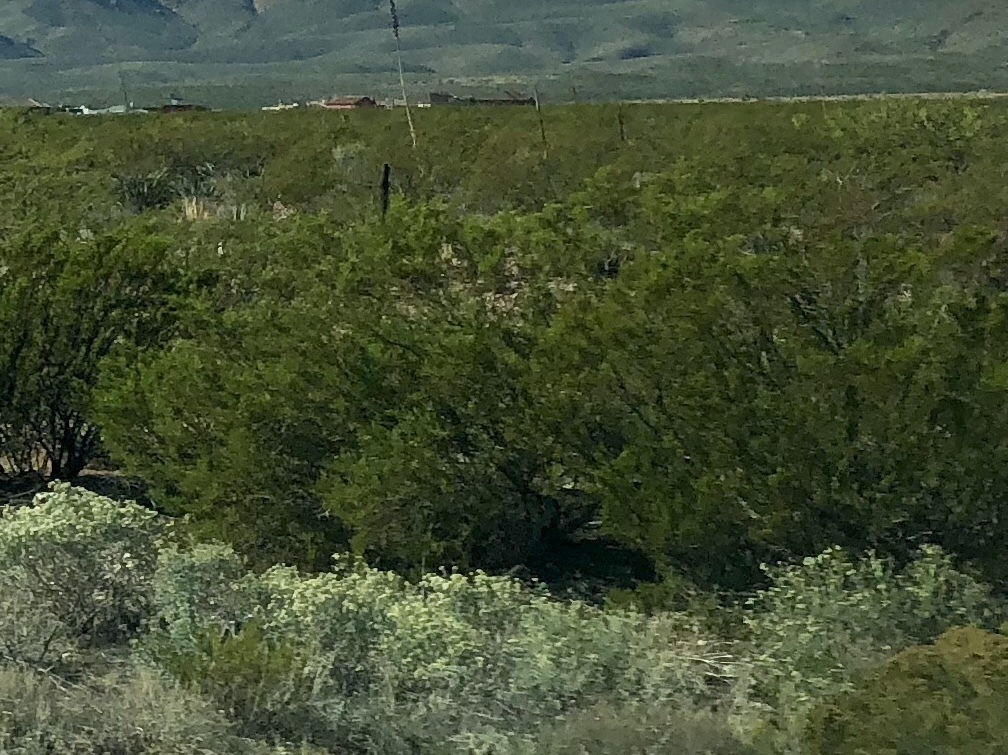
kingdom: Plantae
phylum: Tracheophyta
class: Magnoliopsida
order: Zygophyllales
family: Zygophyllaceae
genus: Larrea
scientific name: Larrea tridentata
